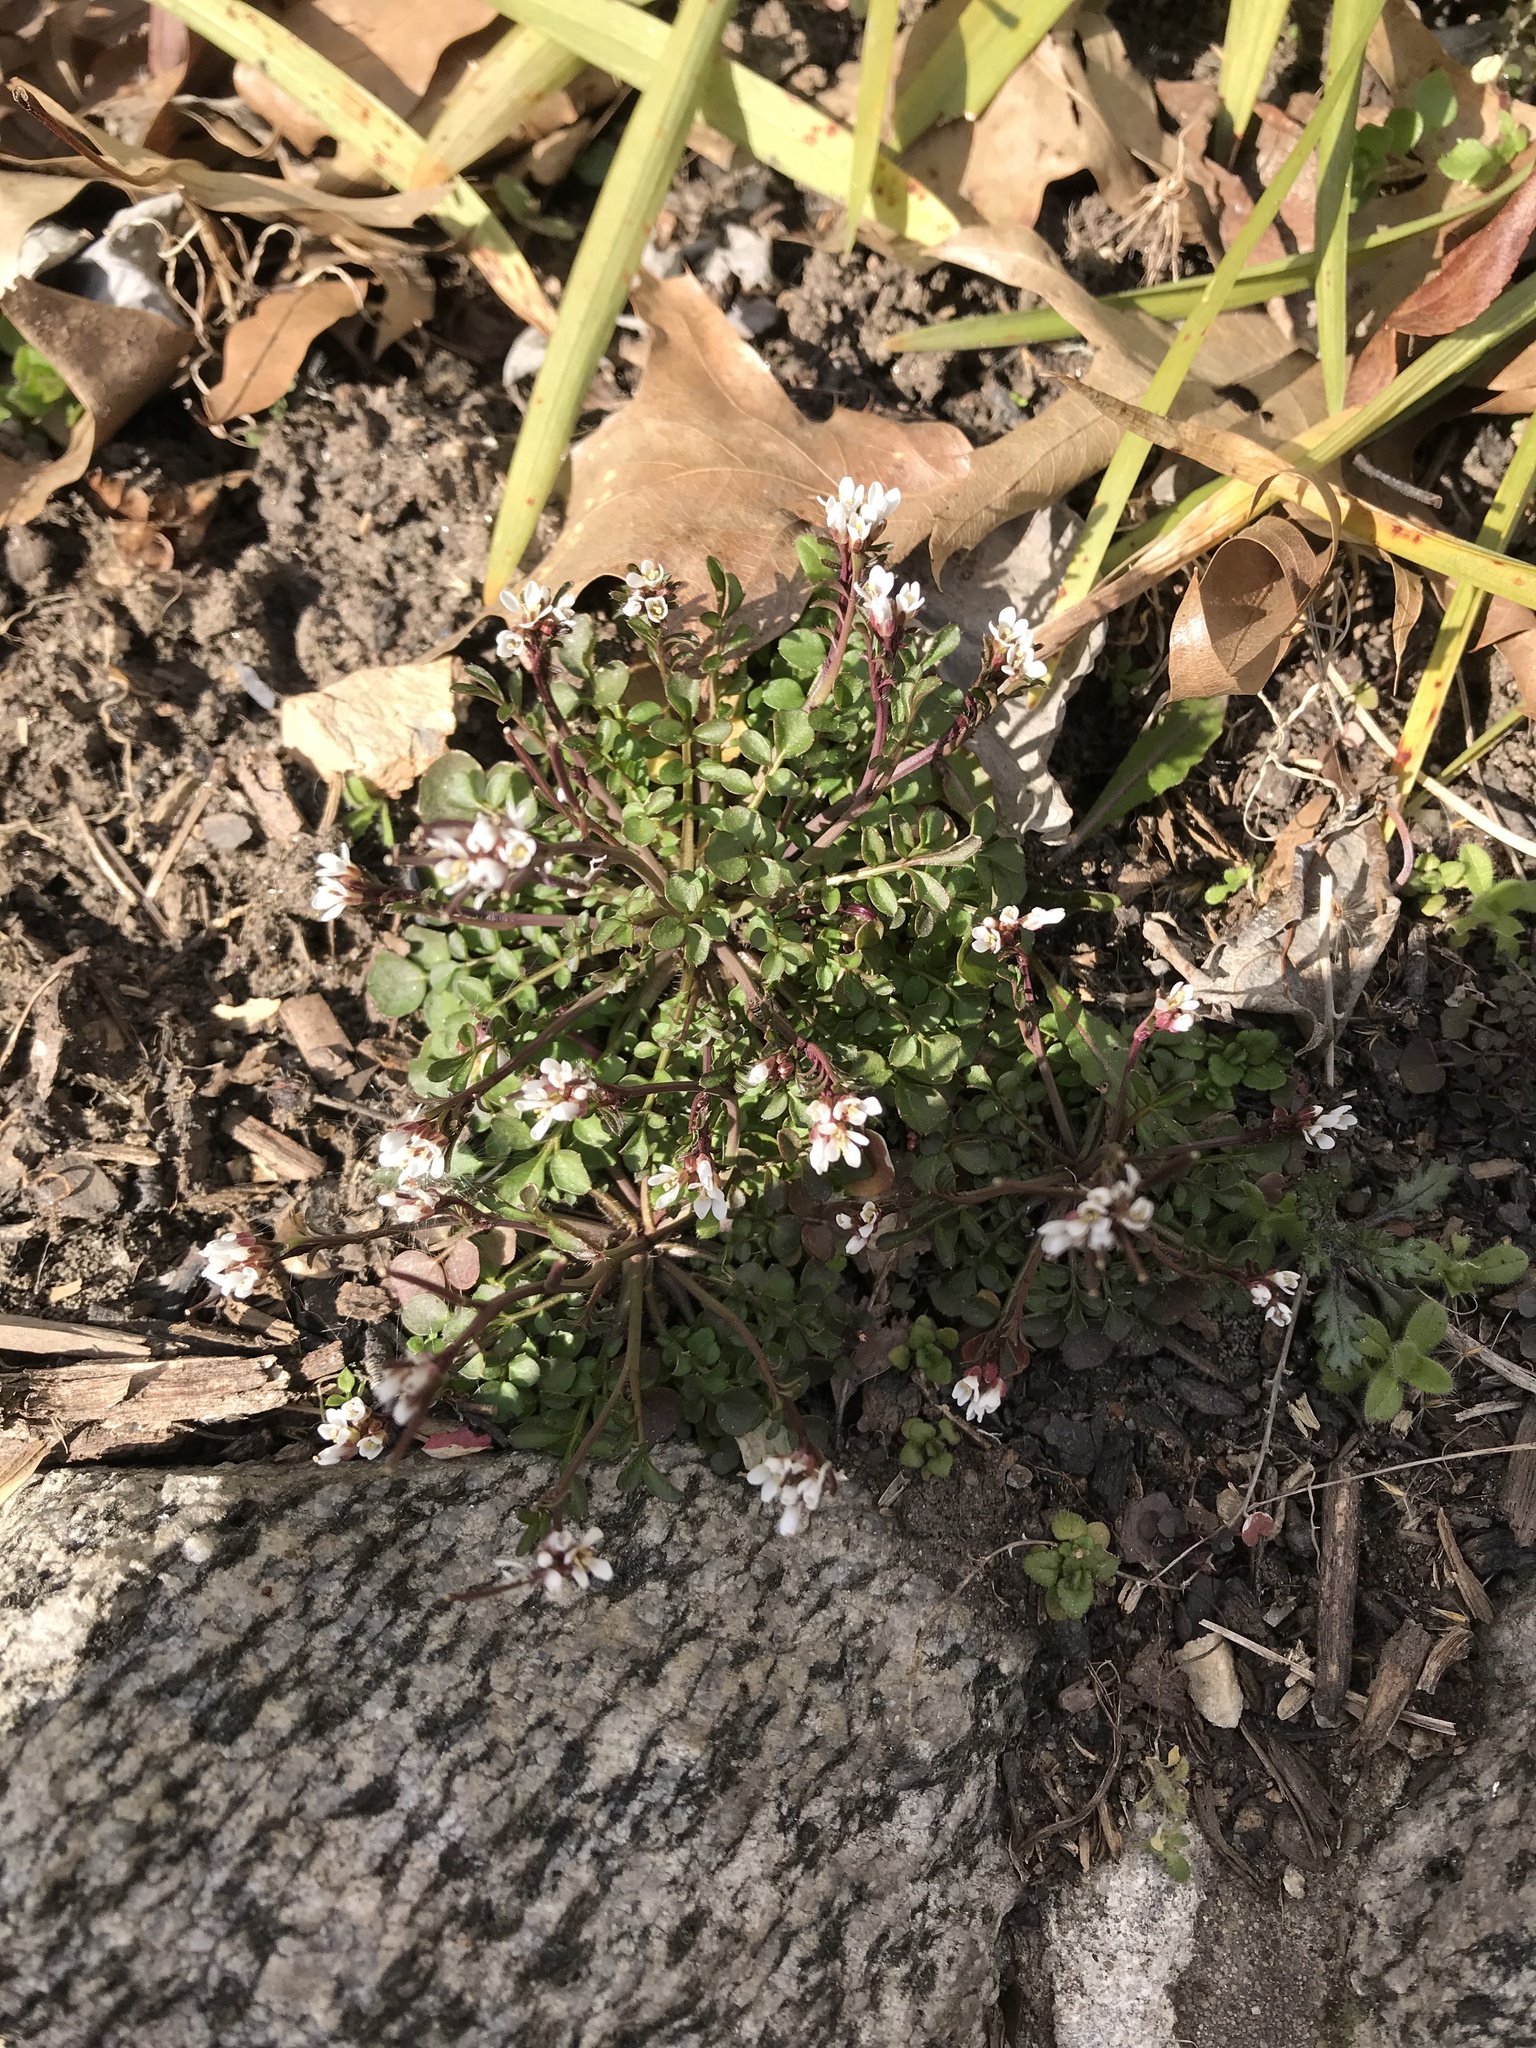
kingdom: Plantae
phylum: Tracheophyta
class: Magnoliopsida
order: Brassicales
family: Brassicaceae
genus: Cardamine
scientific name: Cardamine hirsuta
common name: Hairy bittercress
